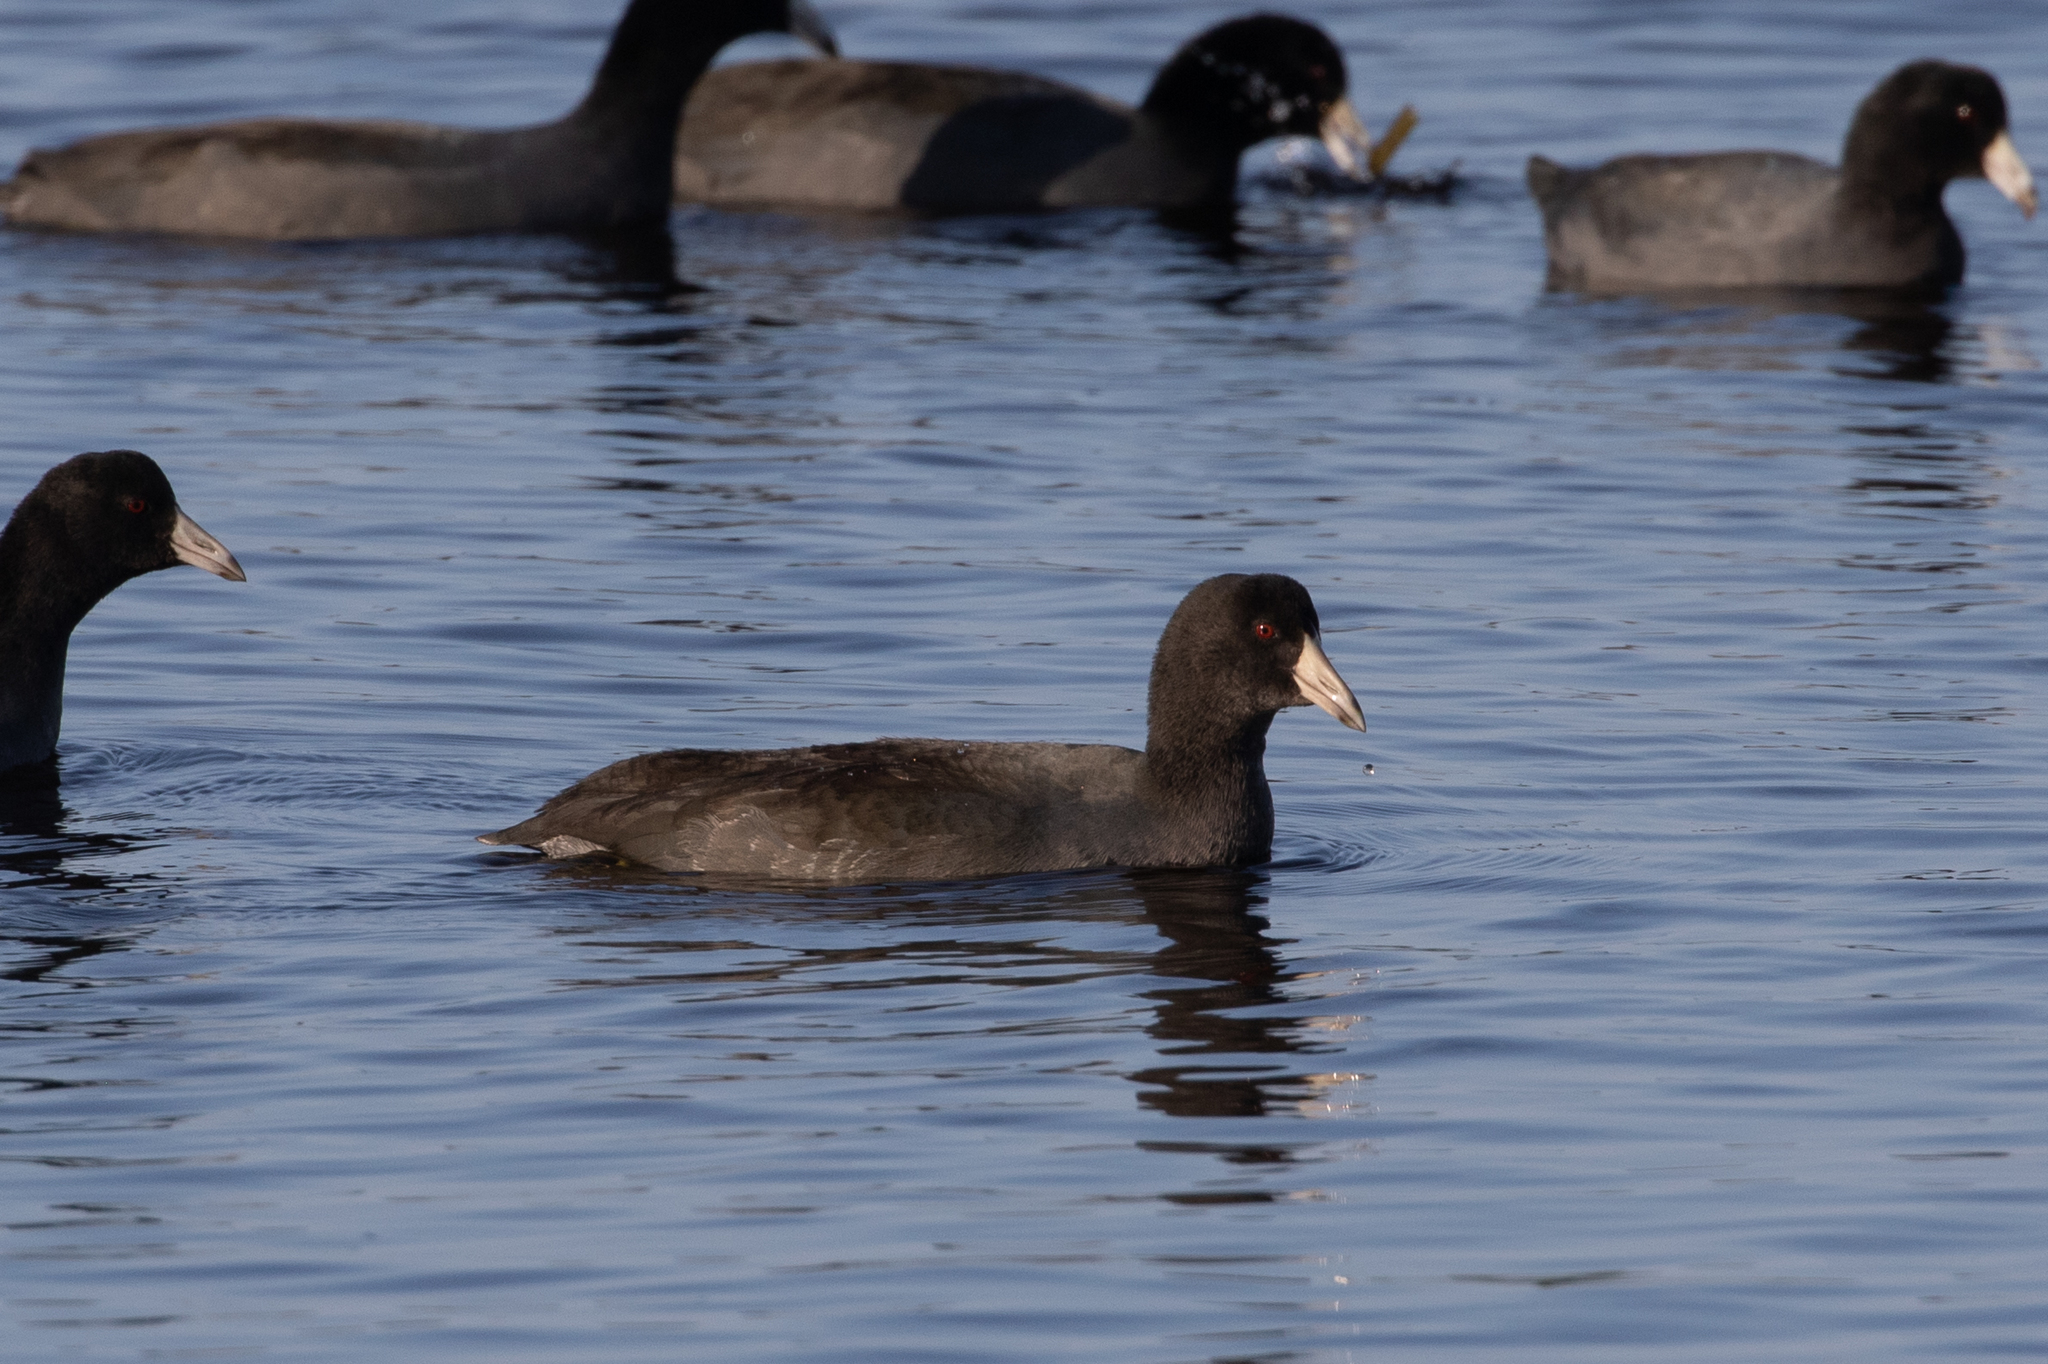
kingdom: Animalia
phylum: Chordata
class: Aves
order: Gruiformes
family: Rallidae
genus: Fulica
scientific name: Fulica americana
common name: American coot
